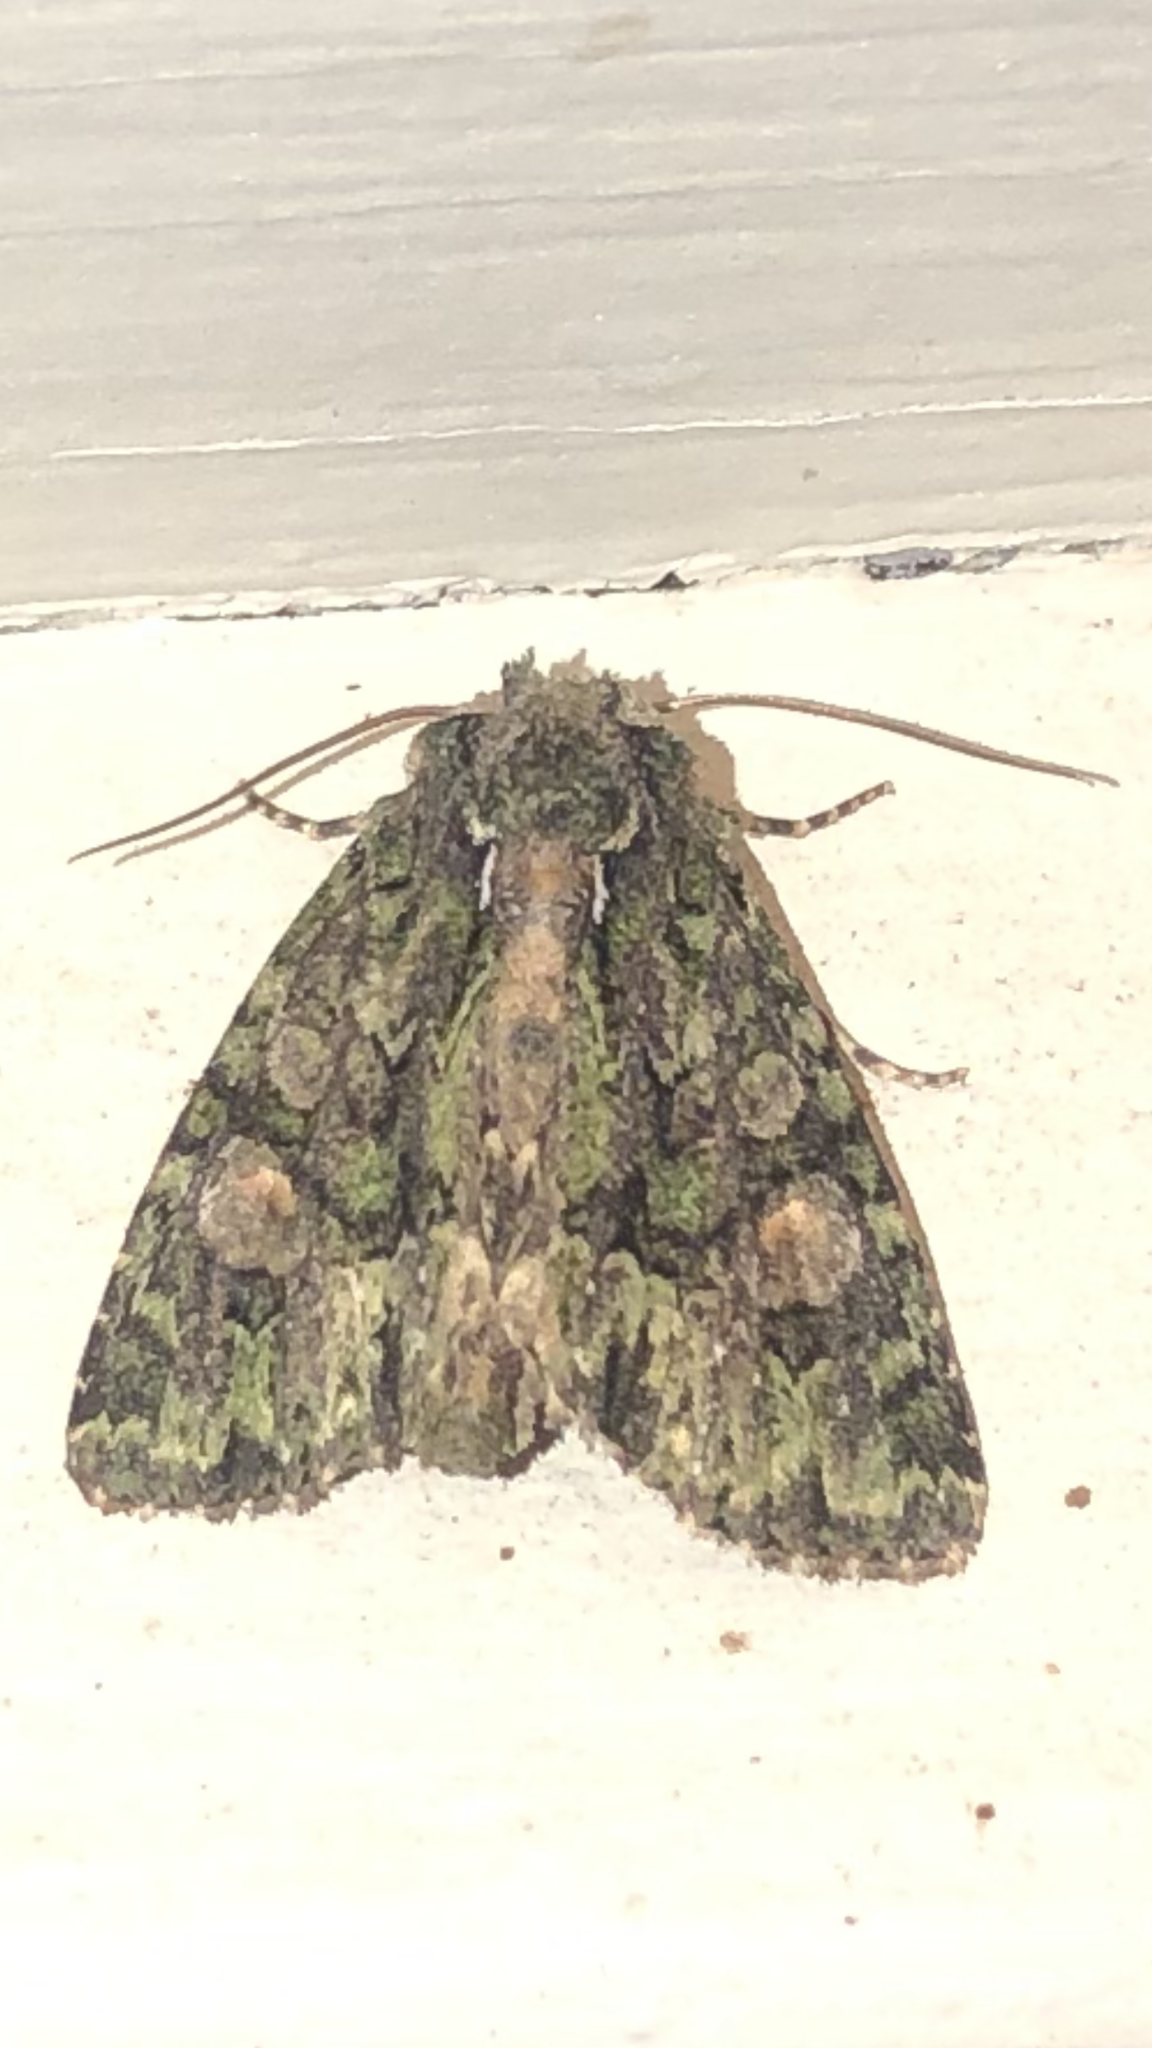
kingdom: Animalia
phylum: Arthropoda
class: Insecta
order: Lepidoptera
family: Noctuidae
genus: Phosphila
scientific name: Phosphila miselioides
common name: Spotted phosphila moth
